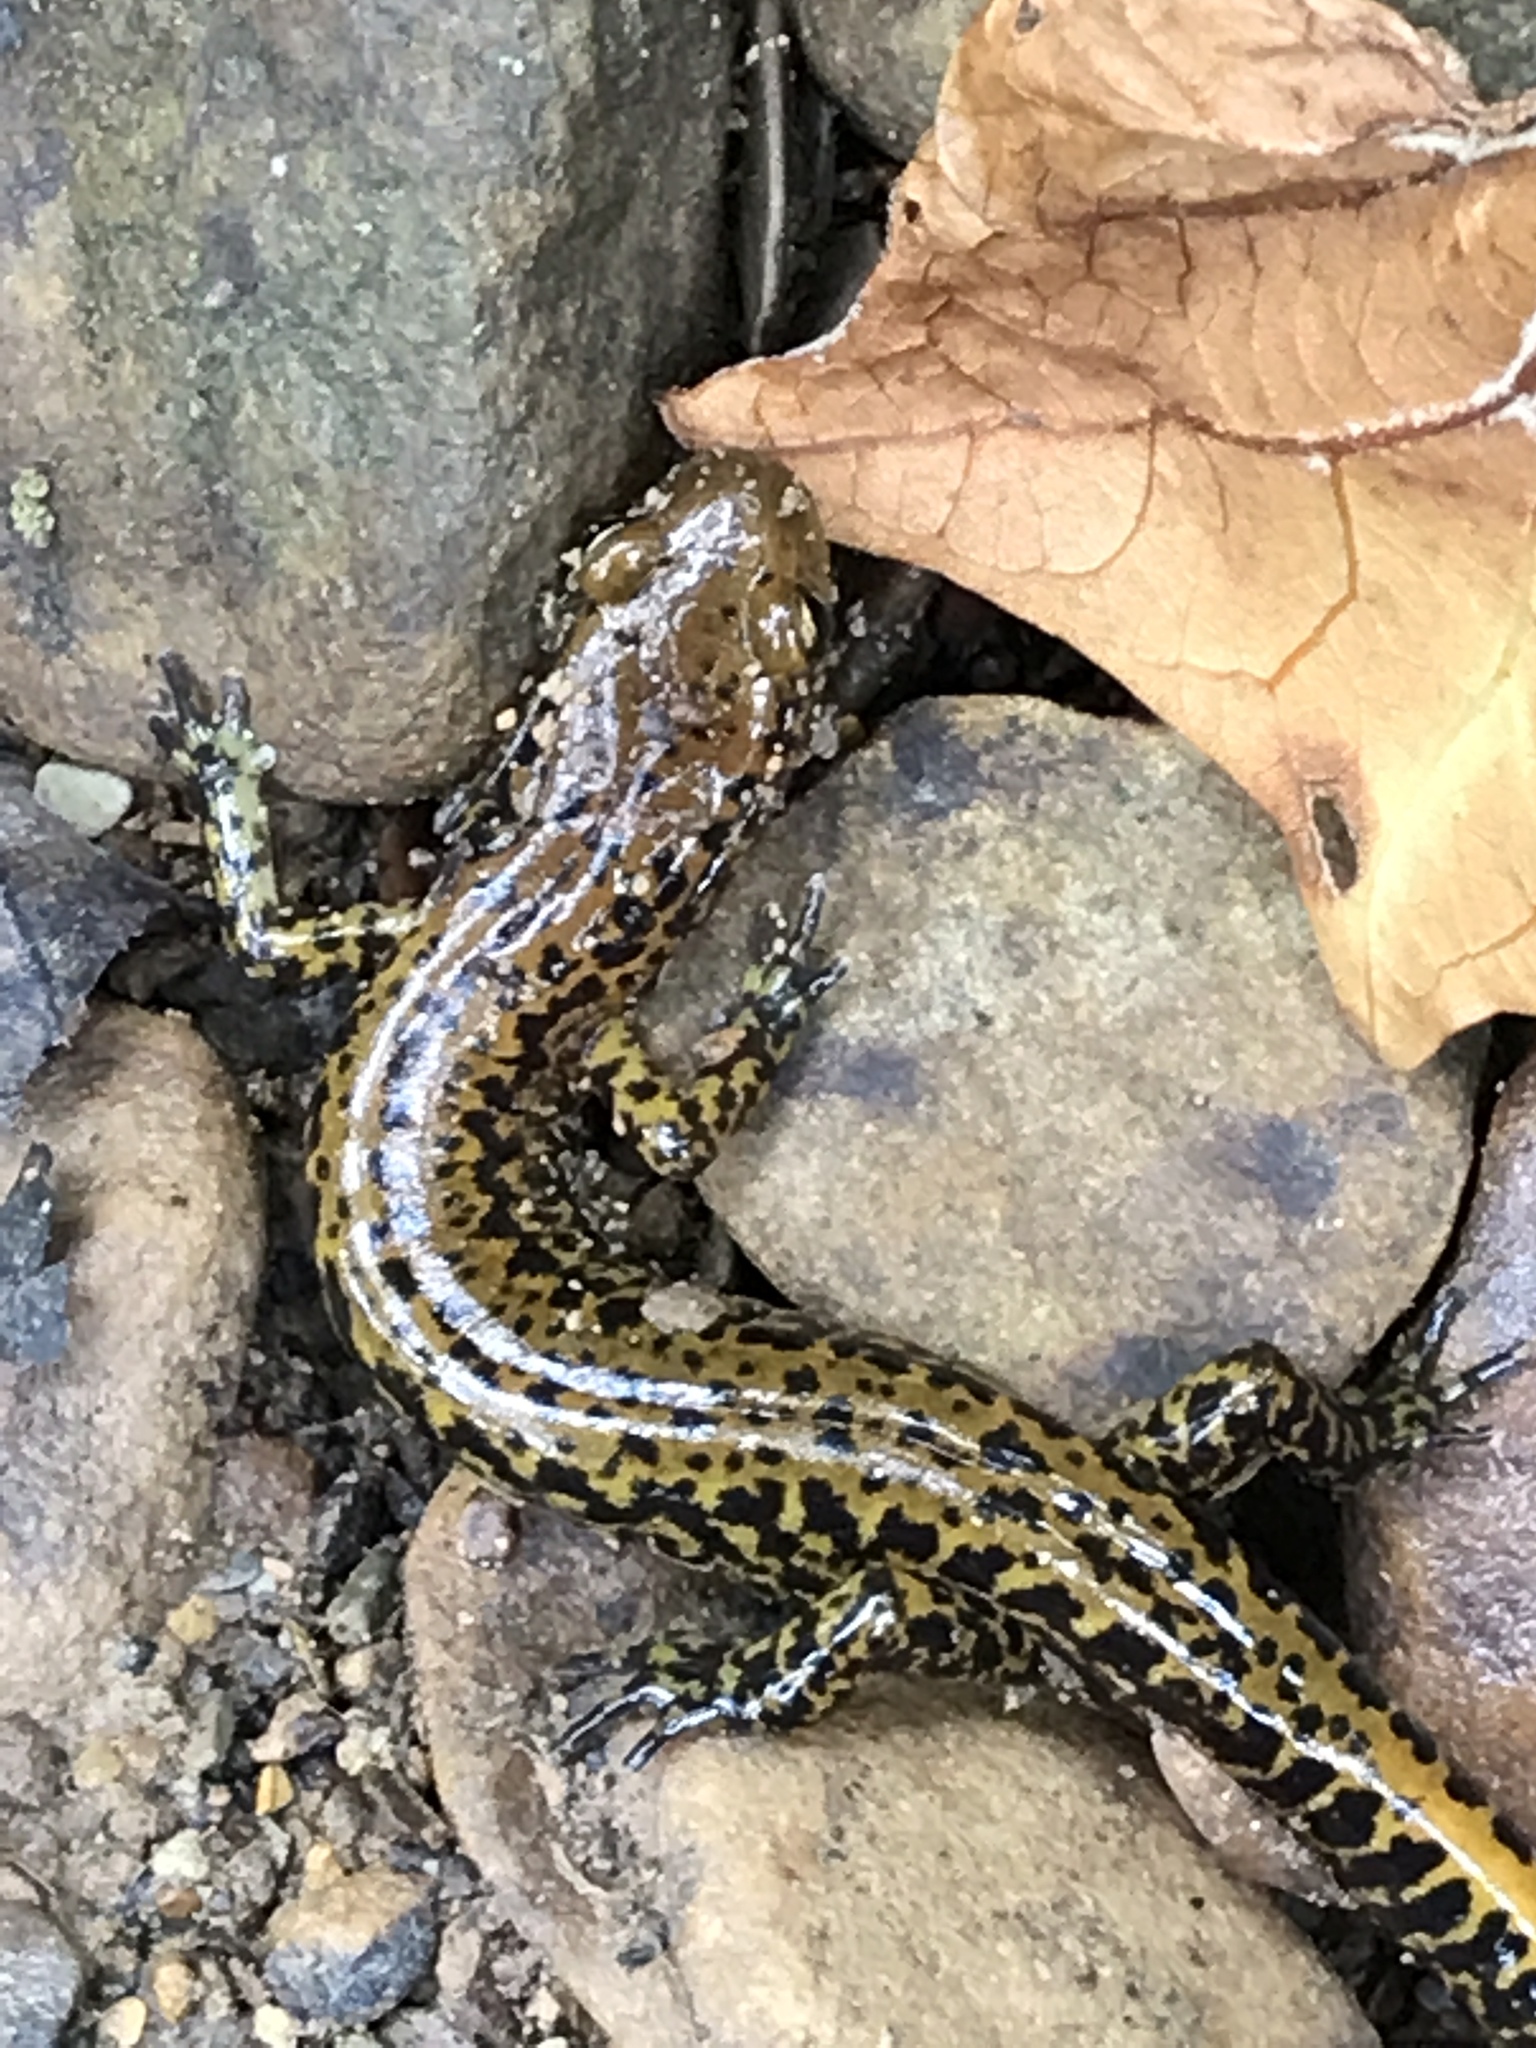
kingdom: Animalia
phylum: Chordata
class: Amphibia
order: Caudata
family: Plethodontidae
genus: Eurycea
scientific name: Eurycea longicauda
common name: Long-tailed salamander
